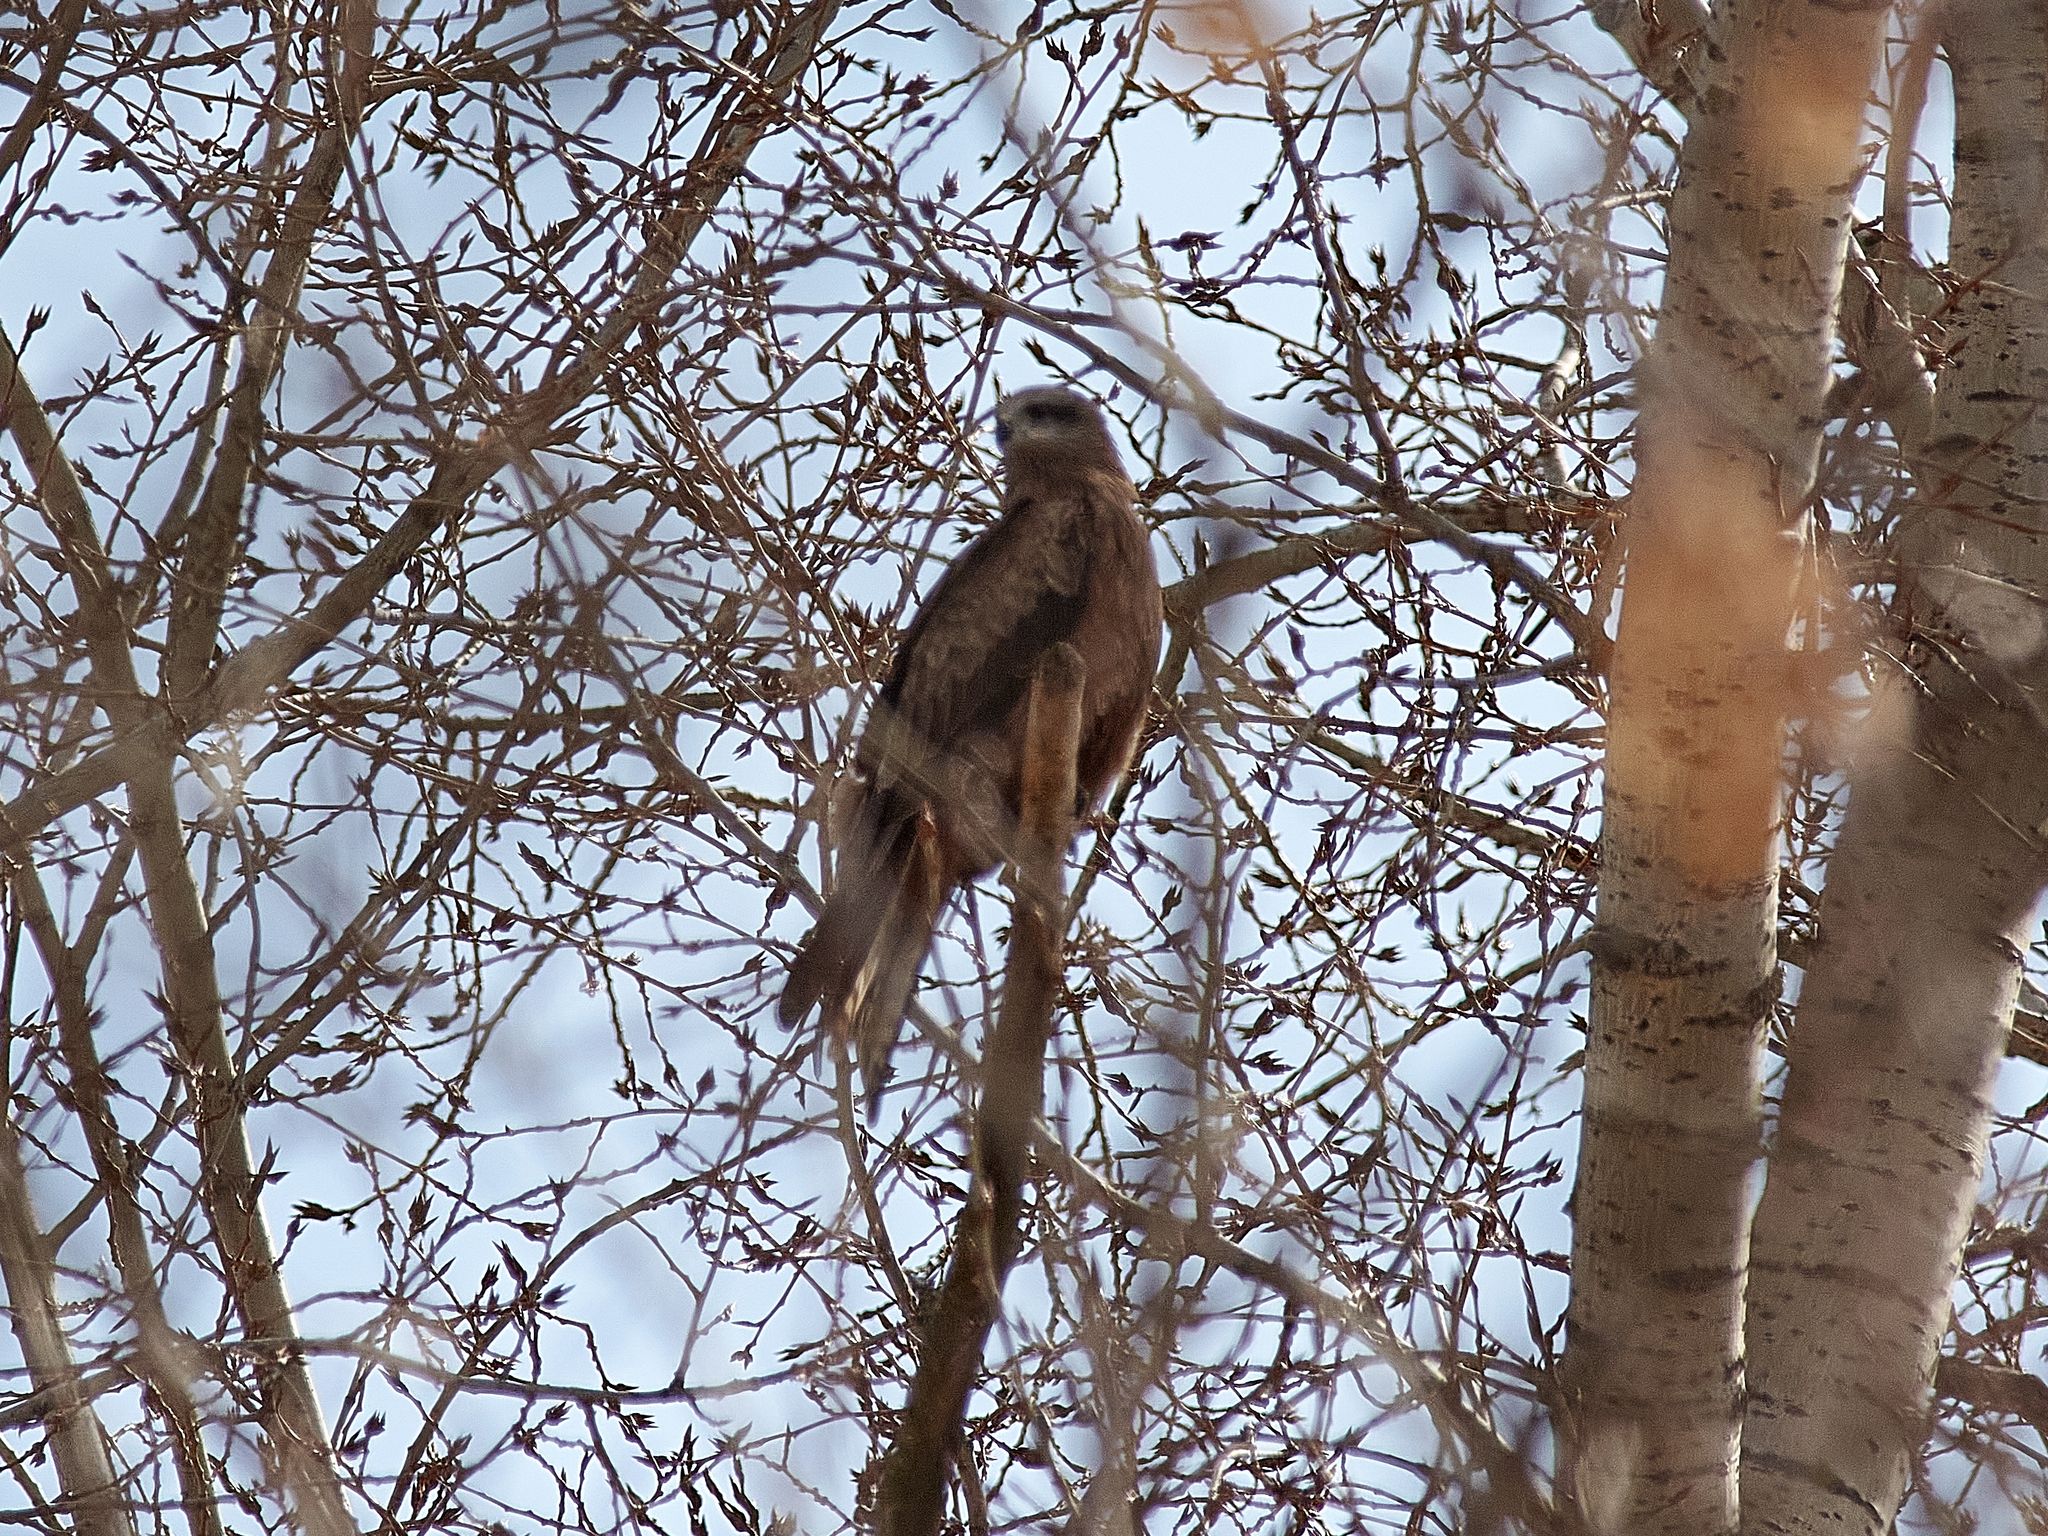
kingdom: Animalia
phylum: Chordata
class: Aves
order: Accipitriformes
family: Accipitridae
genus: Milvus
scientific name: Milvus migrans
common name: Black kite
